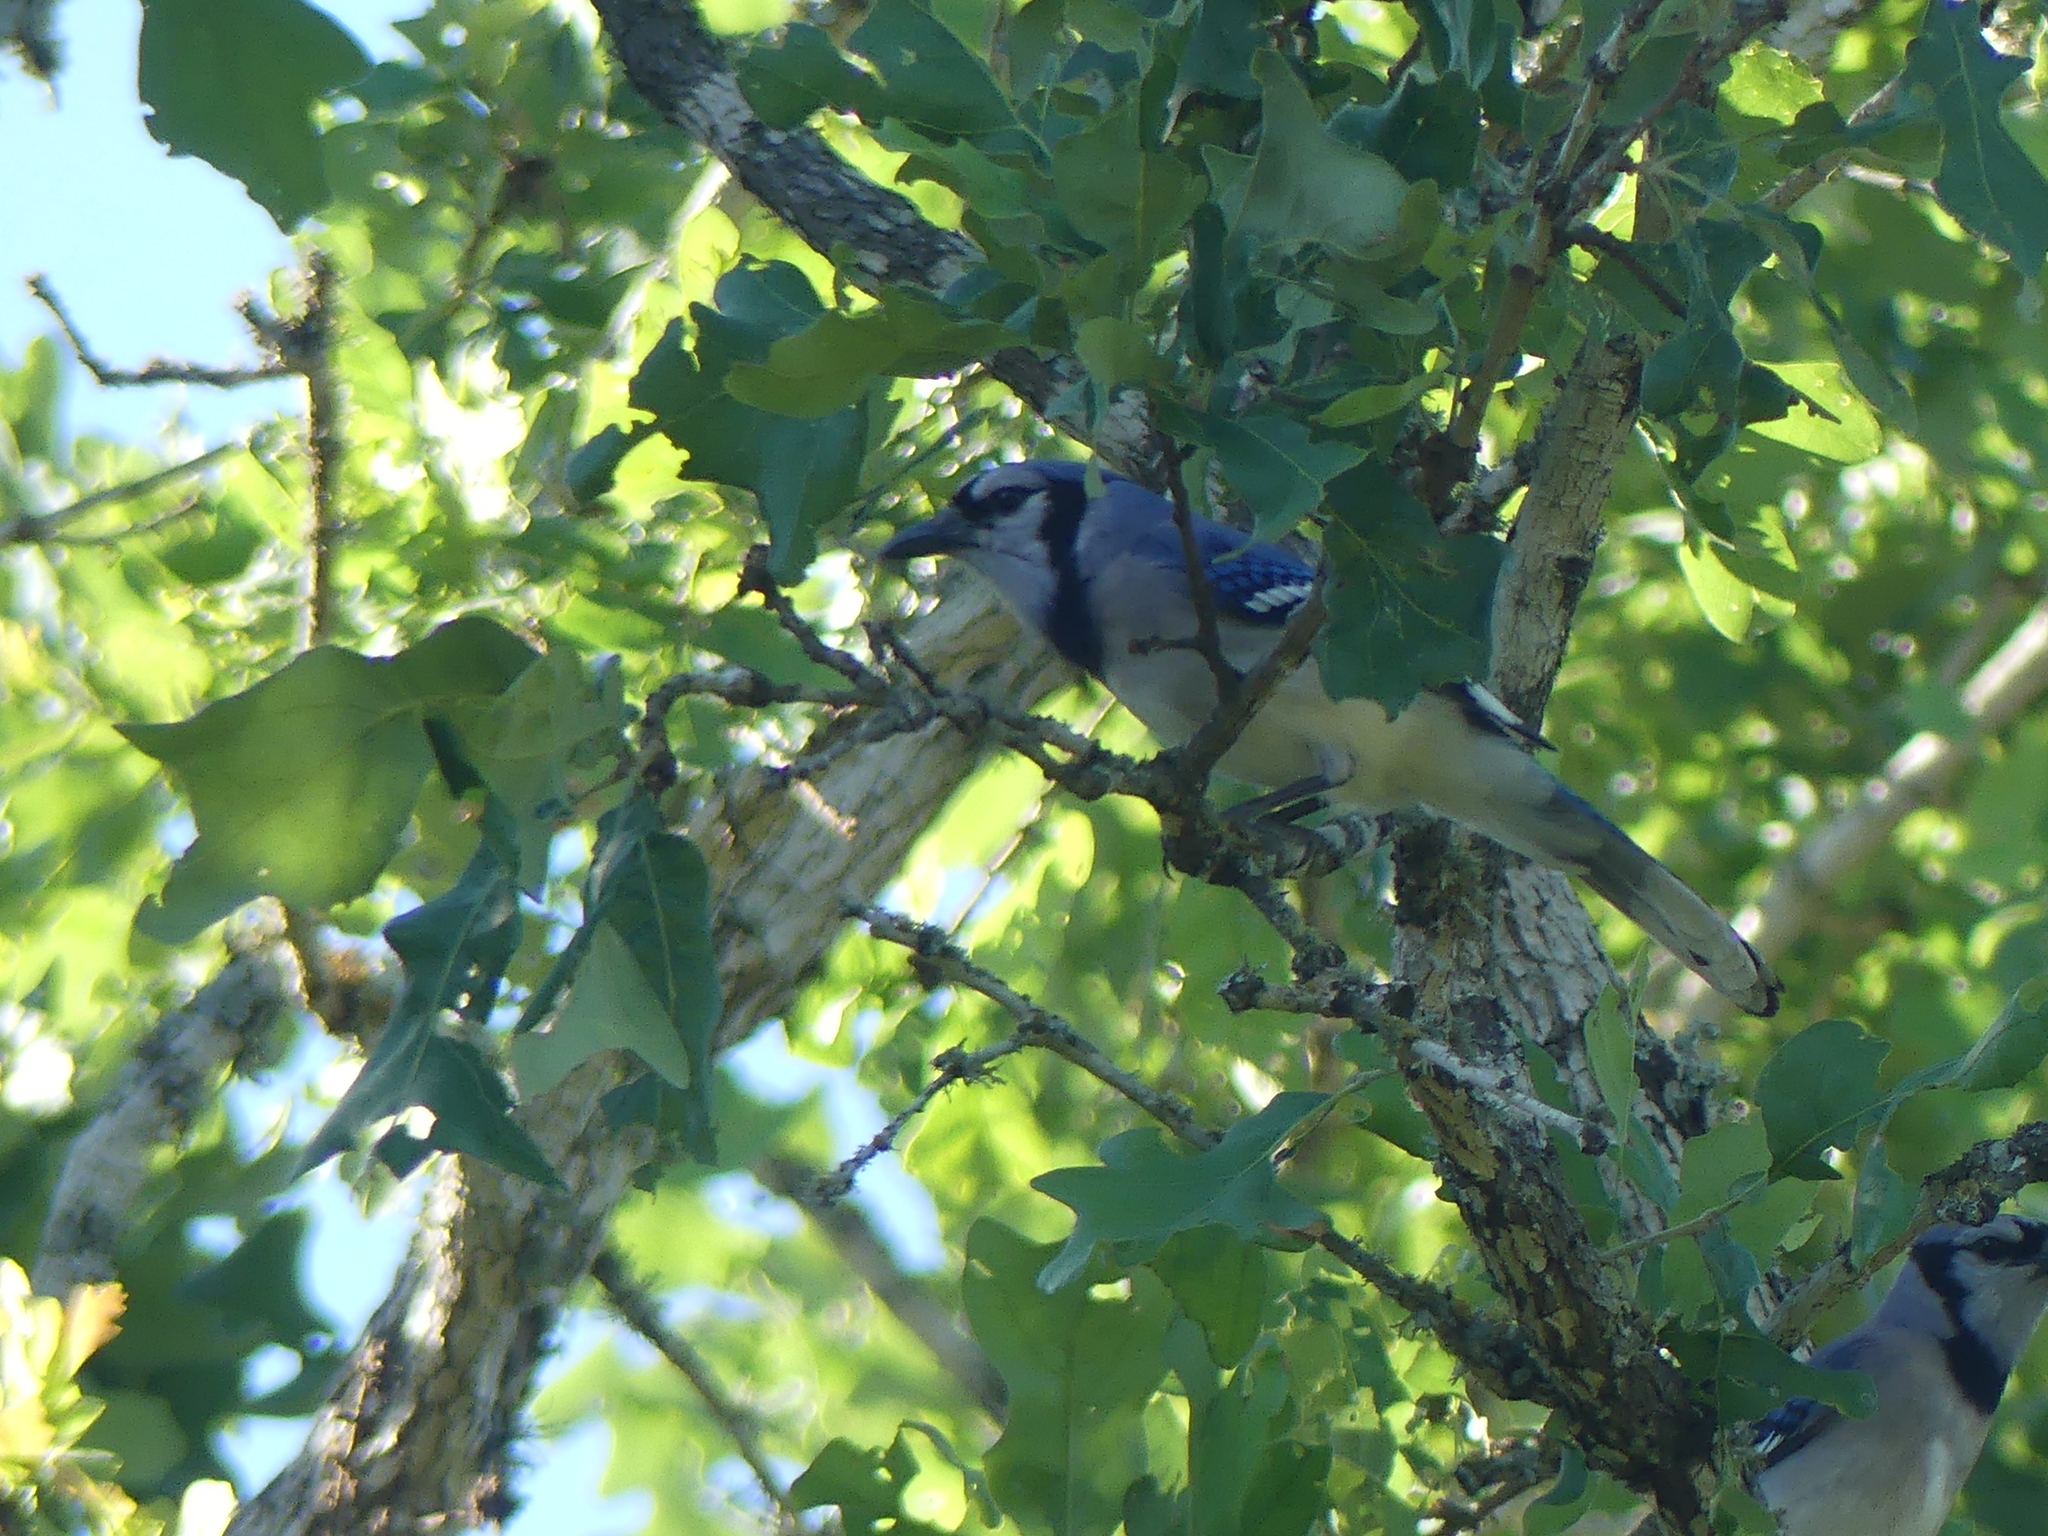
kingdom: Animalia
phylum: Chordata
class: Aves
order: Passeriformes
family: Corvidae
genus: Cyanocitta
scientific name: Cyanocitta cristata
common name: Blue jay
